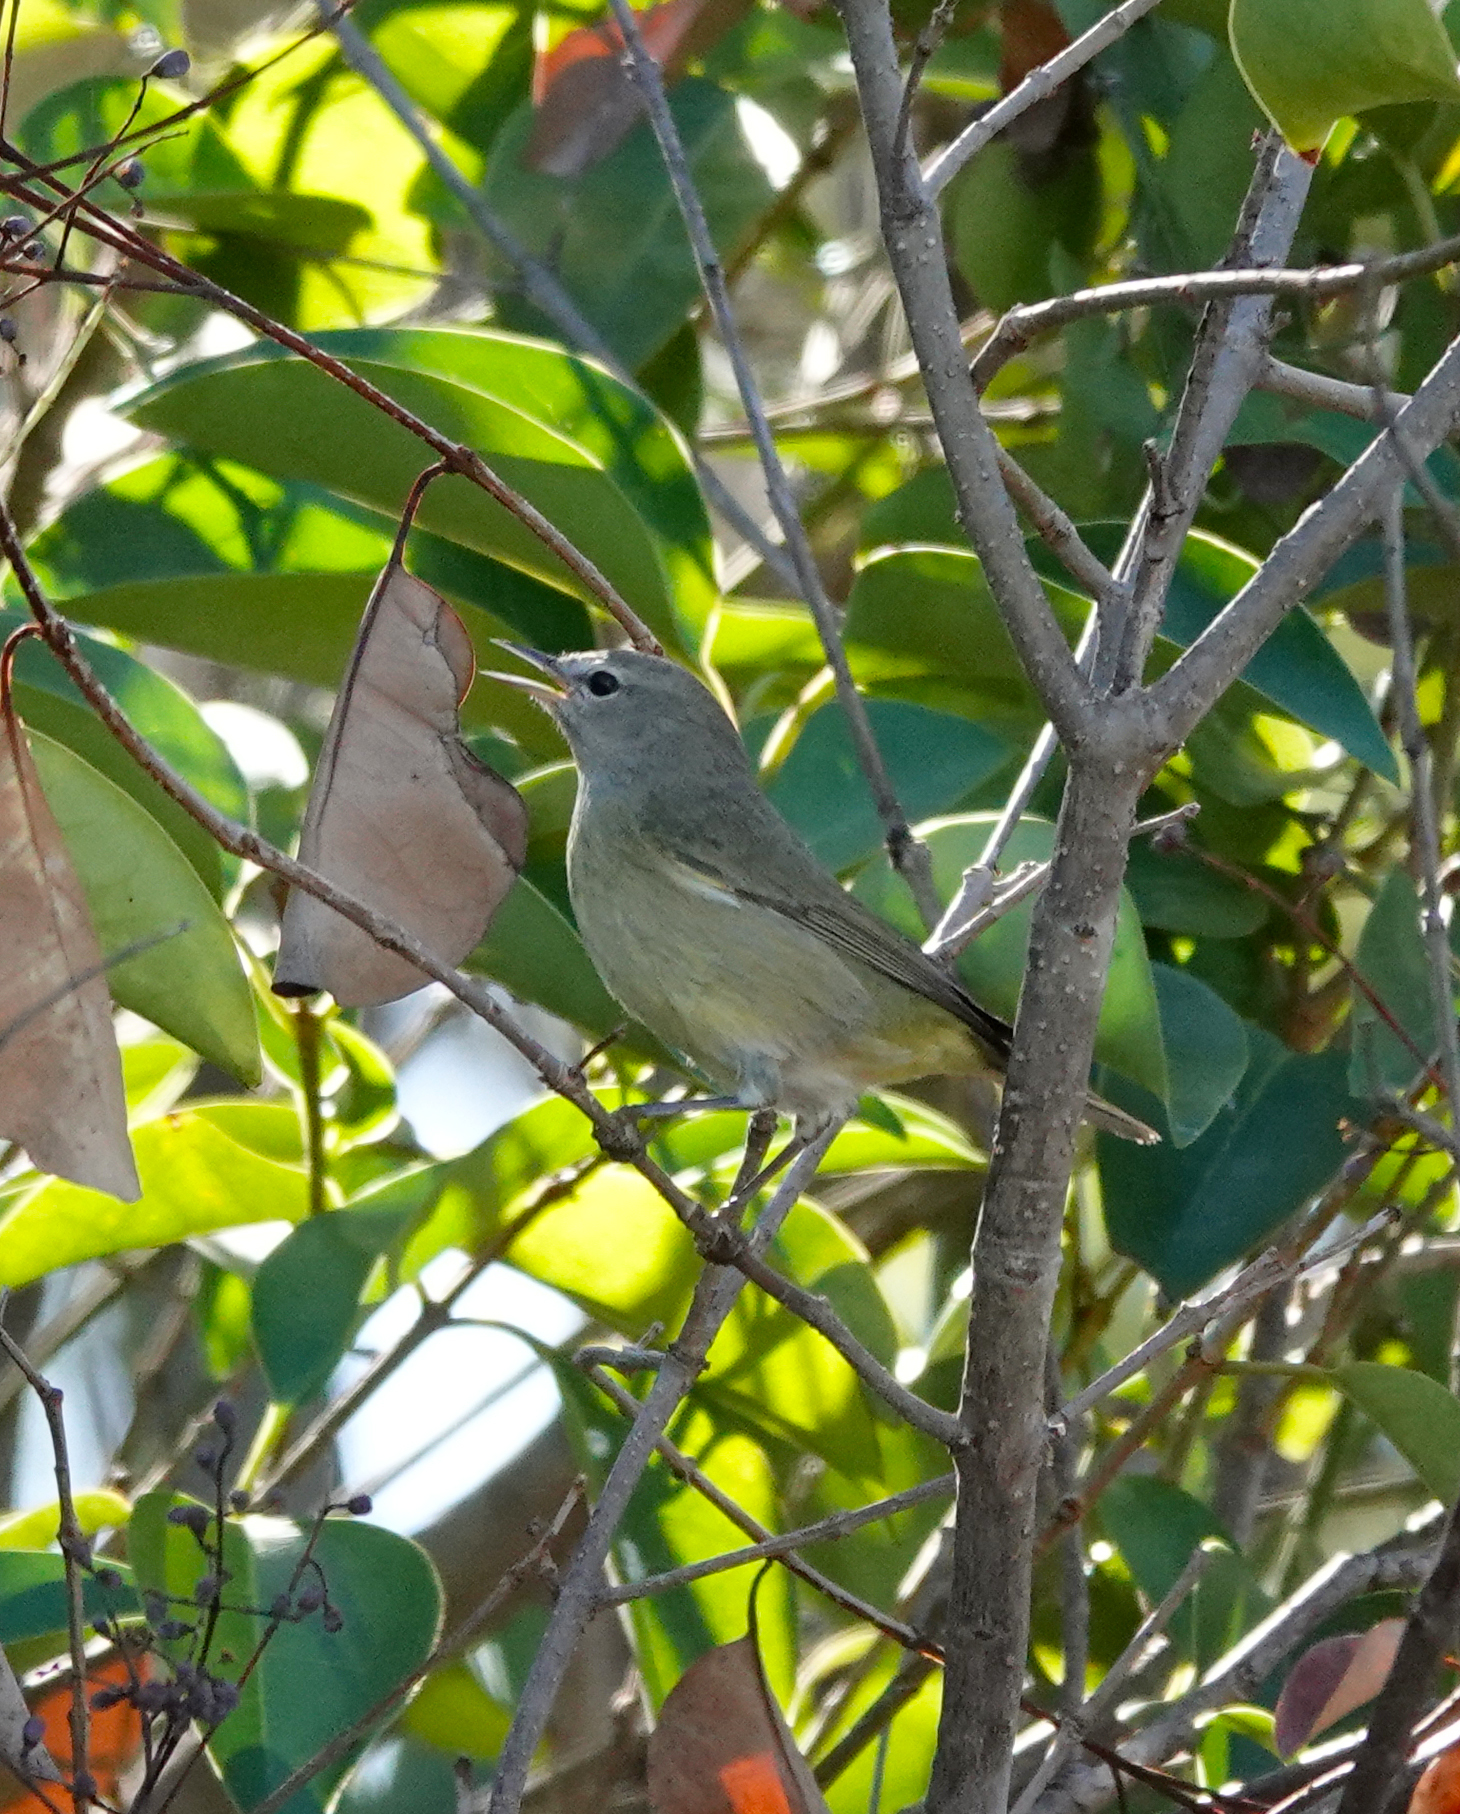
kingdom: Animalia
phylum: Chordata
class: Aves
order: Passeriformes
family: Parulidae
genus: Leiothlypis
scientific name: Leiothlypis celata
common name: Orange-crowned warbler
